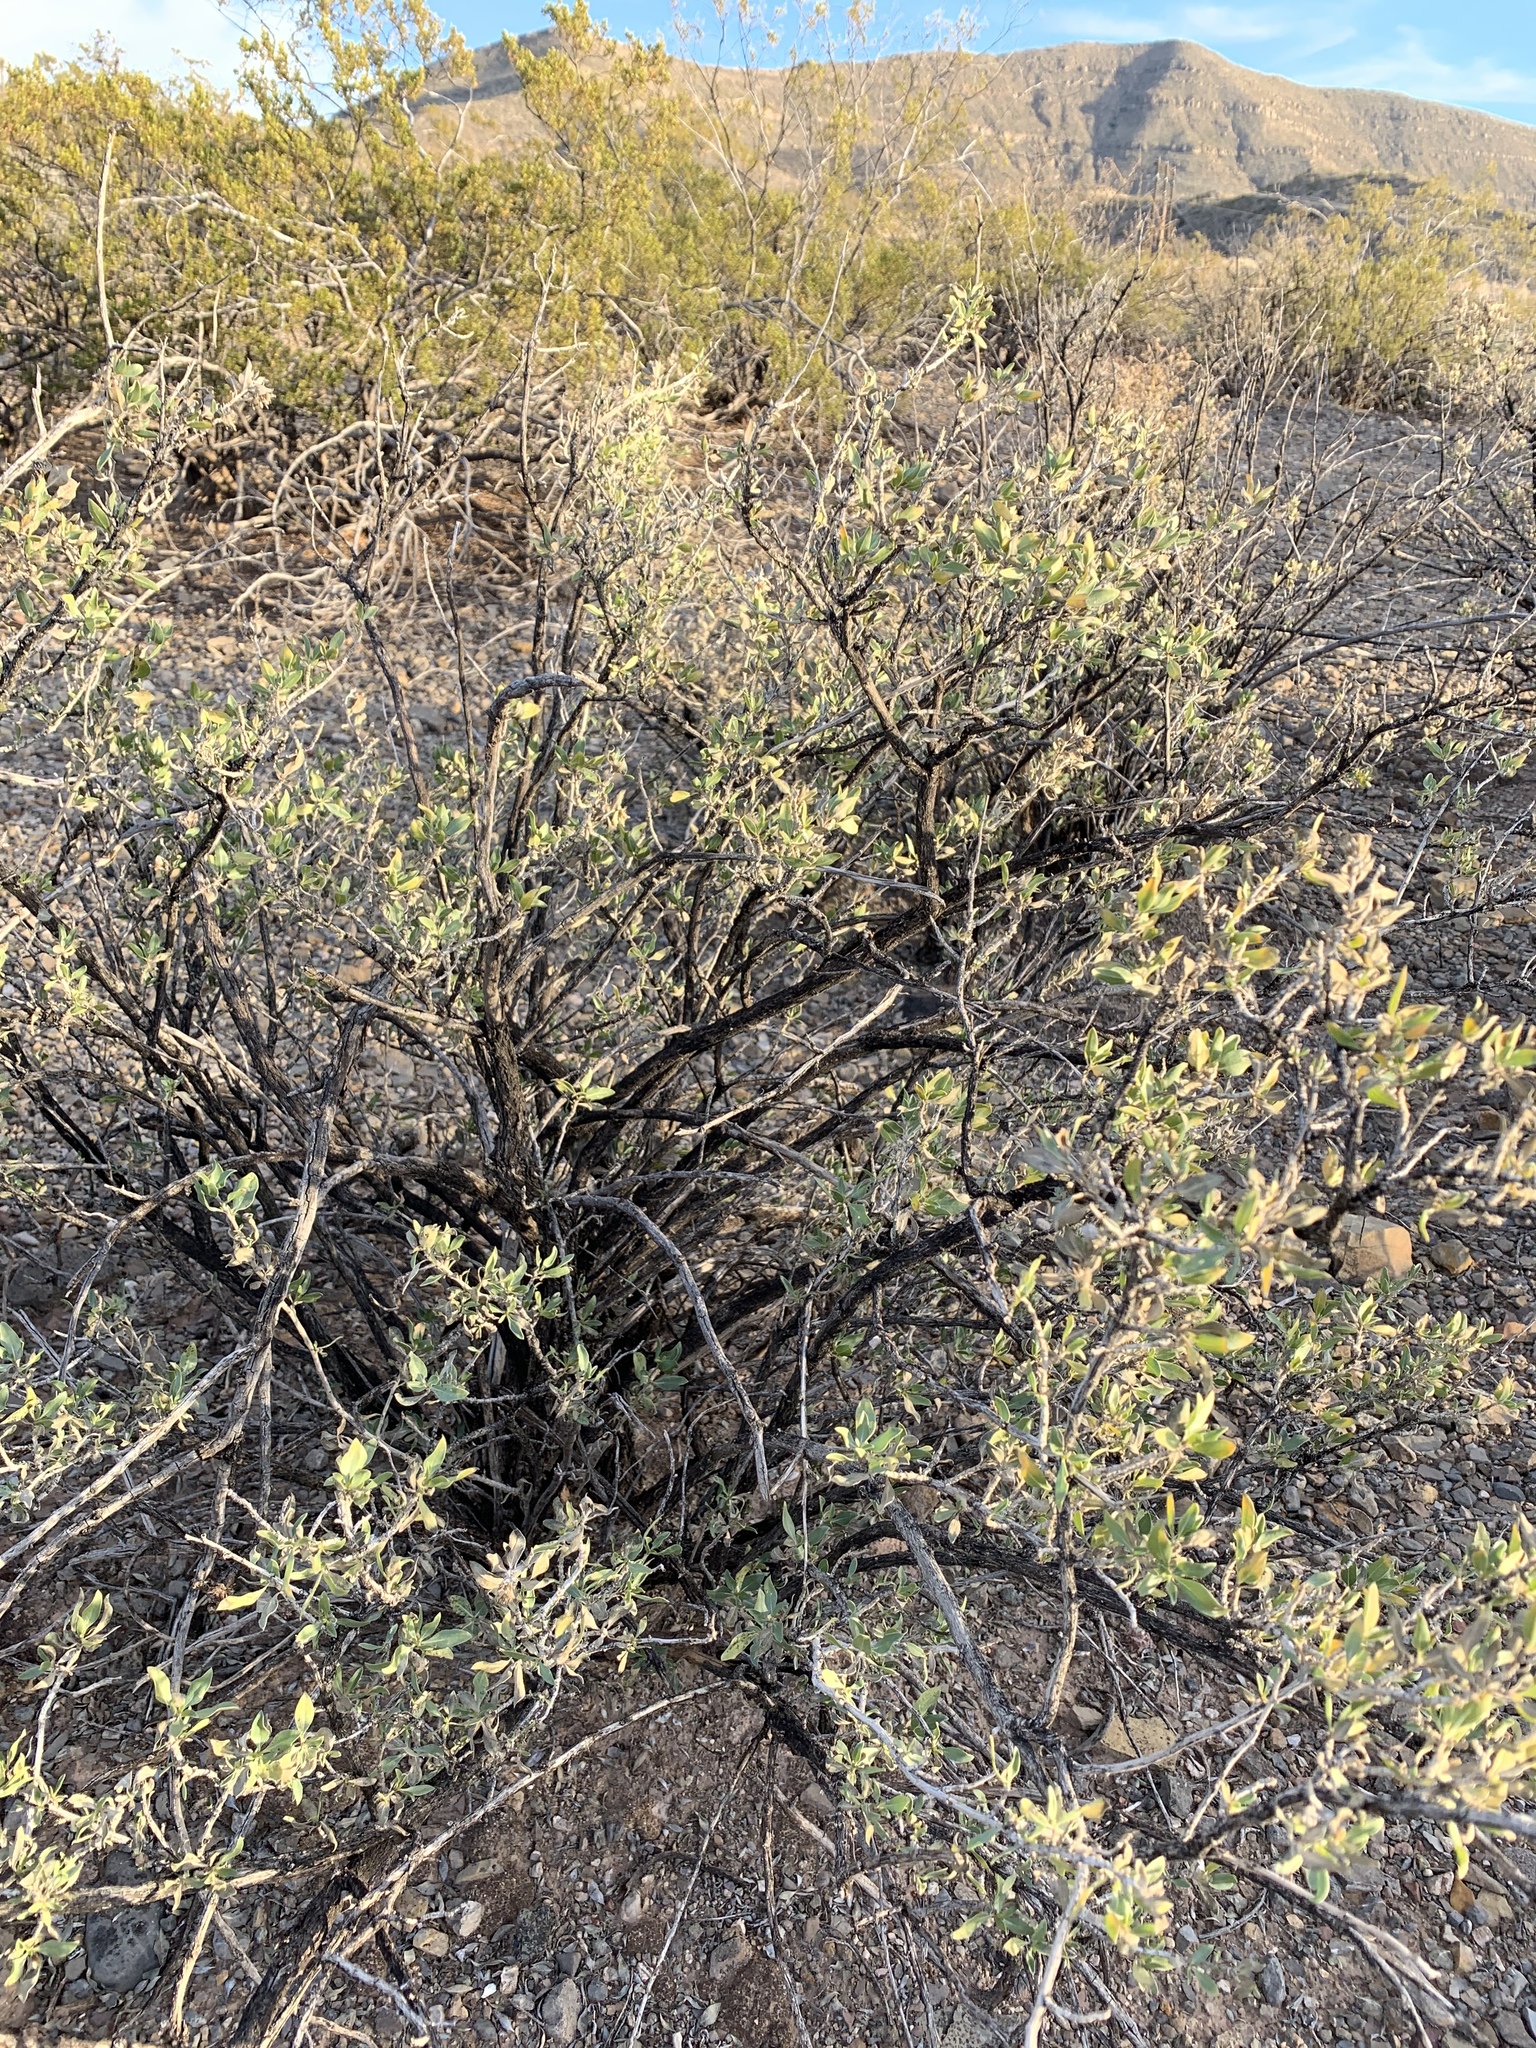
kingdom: Plantae
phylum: Tracheophyta
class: Magnoliopsida
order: Asterales
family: Asteraceae
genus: Flourensia
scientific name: Flourensia cernua
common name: Varnishbush
